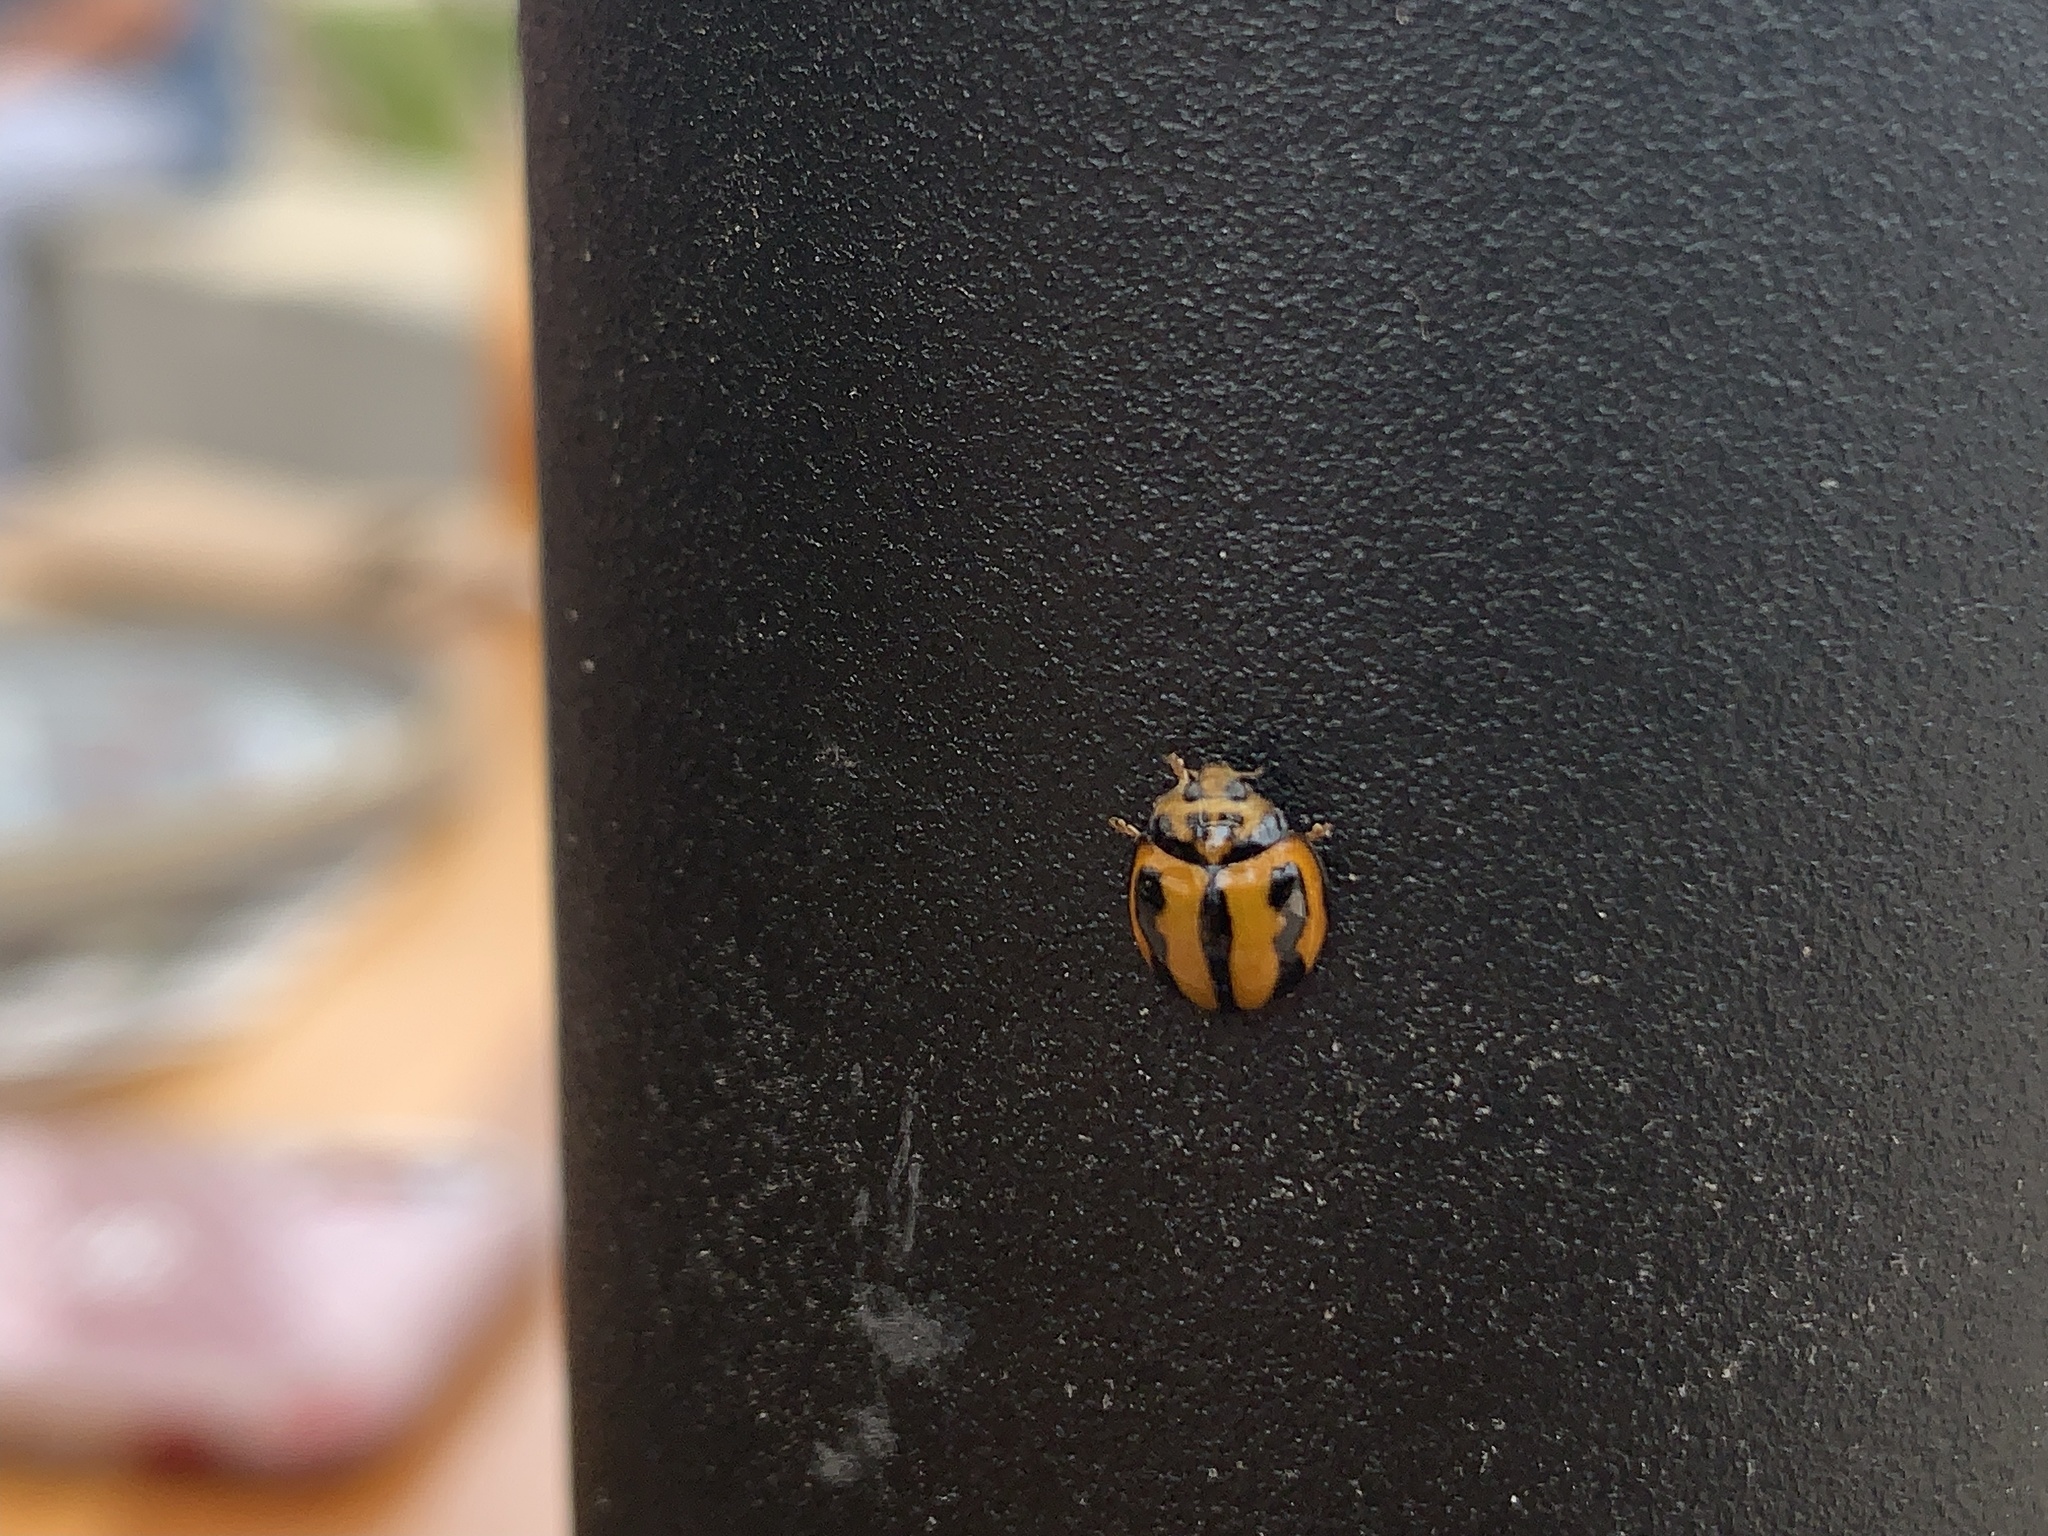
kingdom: Animalia
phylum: Arthropoda
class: Insecta
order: Coleoptera
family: Coccinellidae
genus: Micraspis
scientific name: Micraspis frenata
